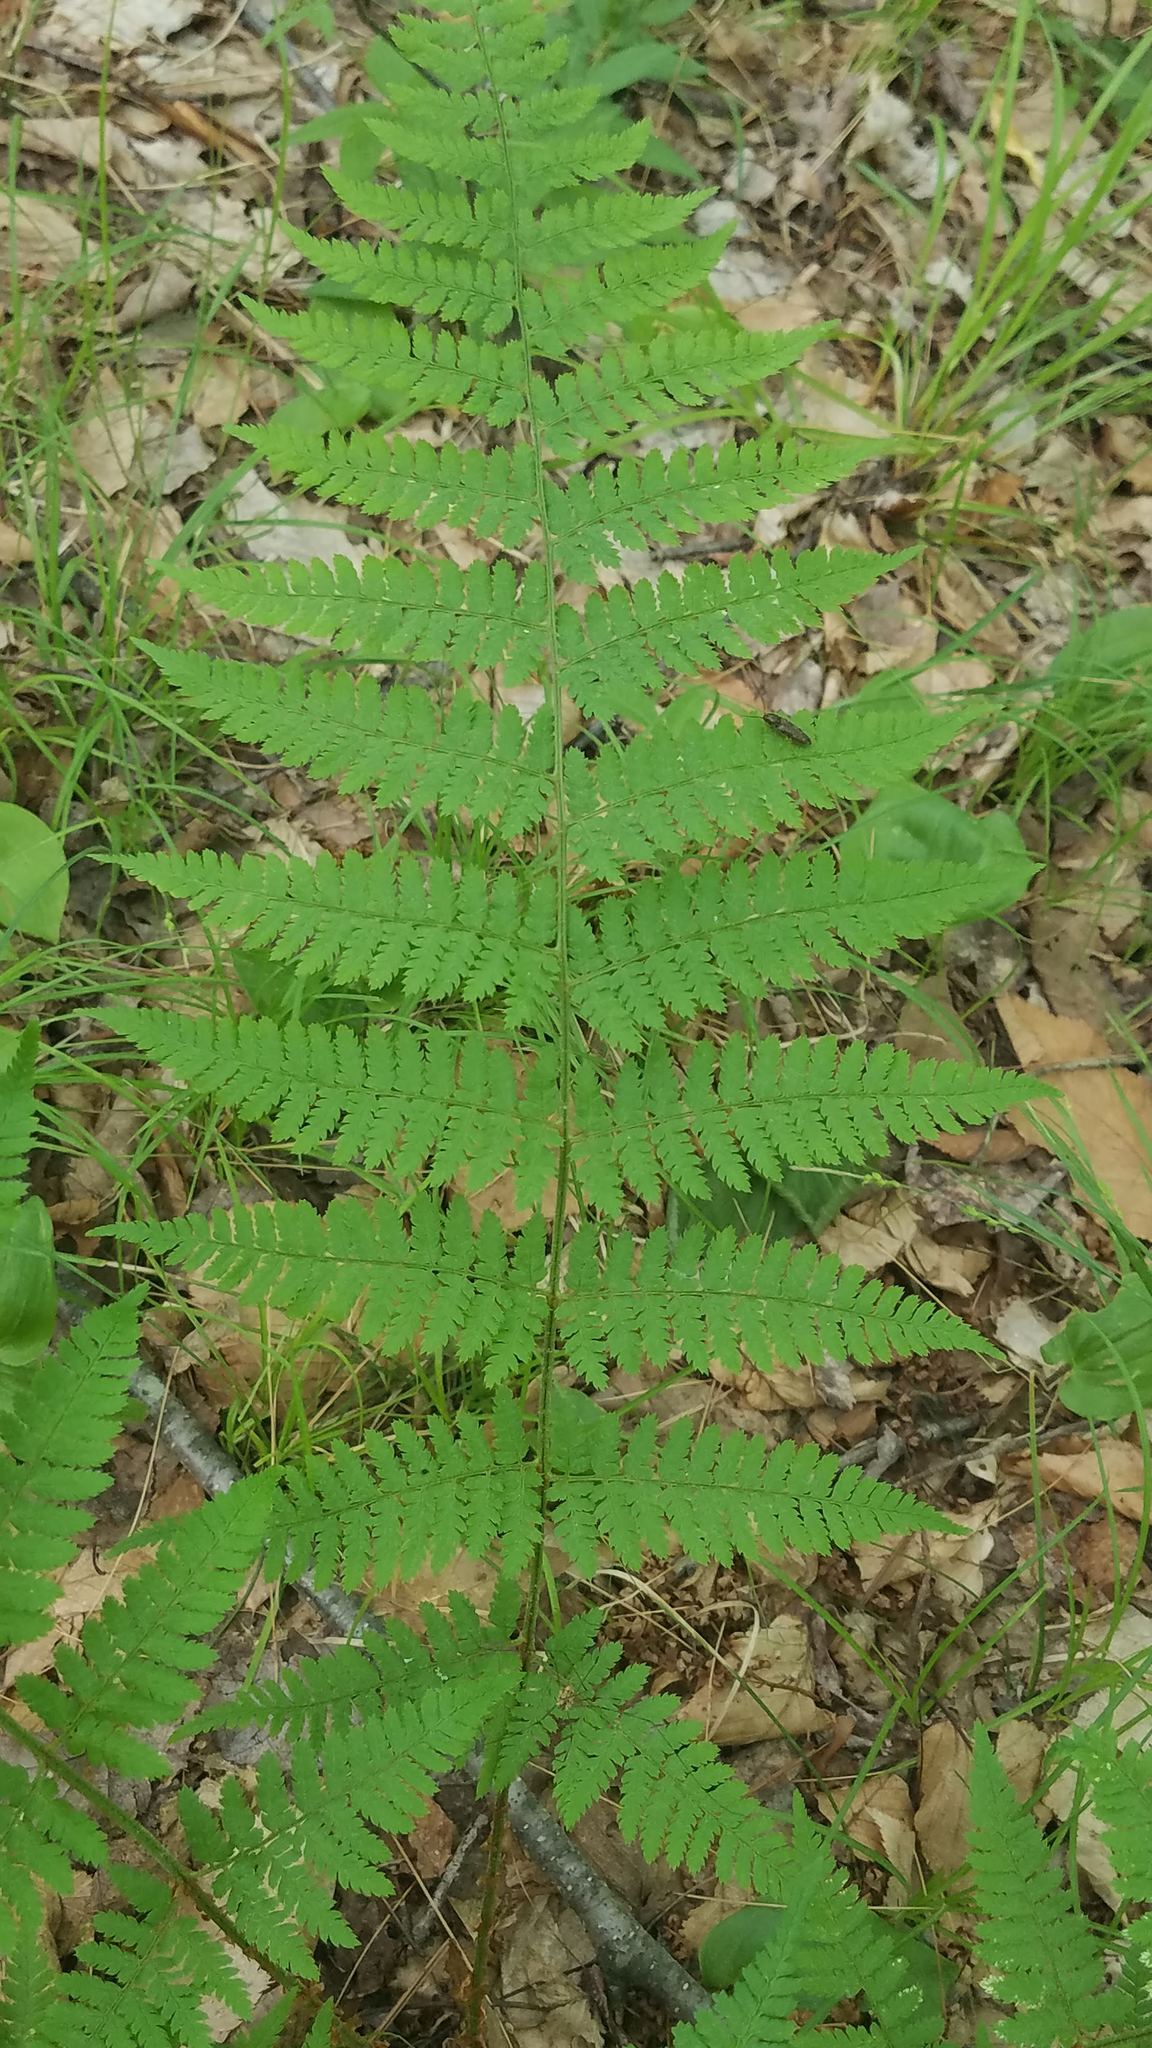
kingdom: Plantae
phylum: Tracheophyta
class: Polypodiopsida
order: Polypodiales
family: Dryopteridaceae
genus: Dryopteris
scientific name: Dryopteris intermedia
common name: Evergreen wood fern
